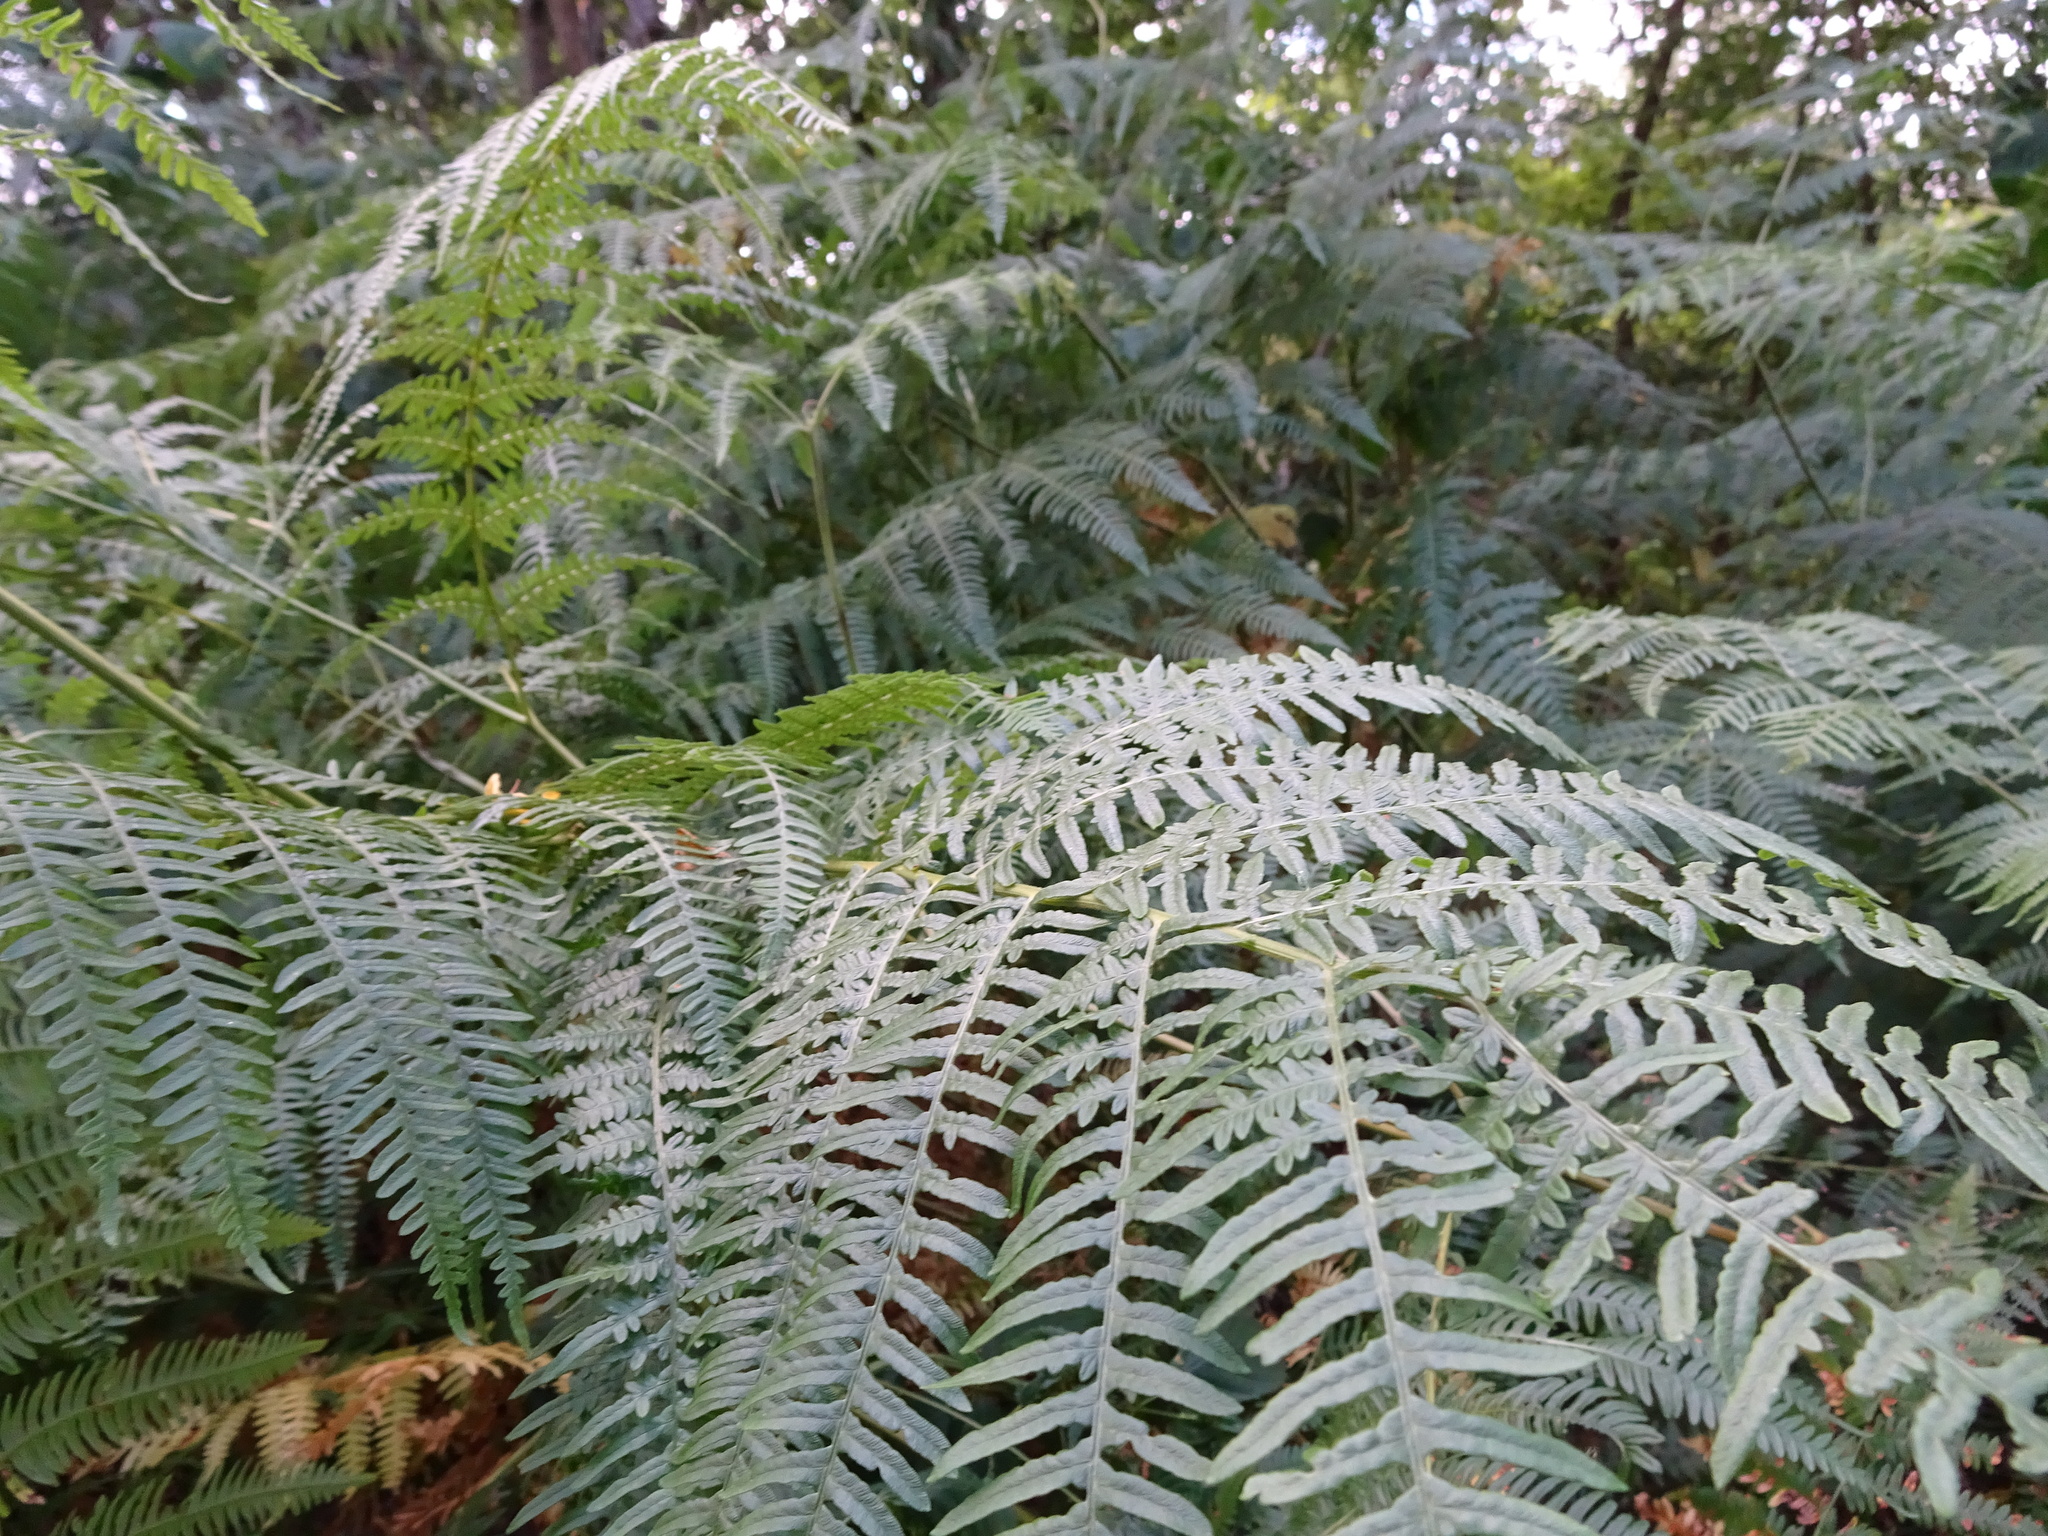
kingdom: Plantae
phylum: Tracheophyta
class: Polypodiopsida
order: Polypodiales
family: Dennstaedtiaceae
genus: Pteridium
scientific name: Pteridium aquilinum
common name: Bracken
